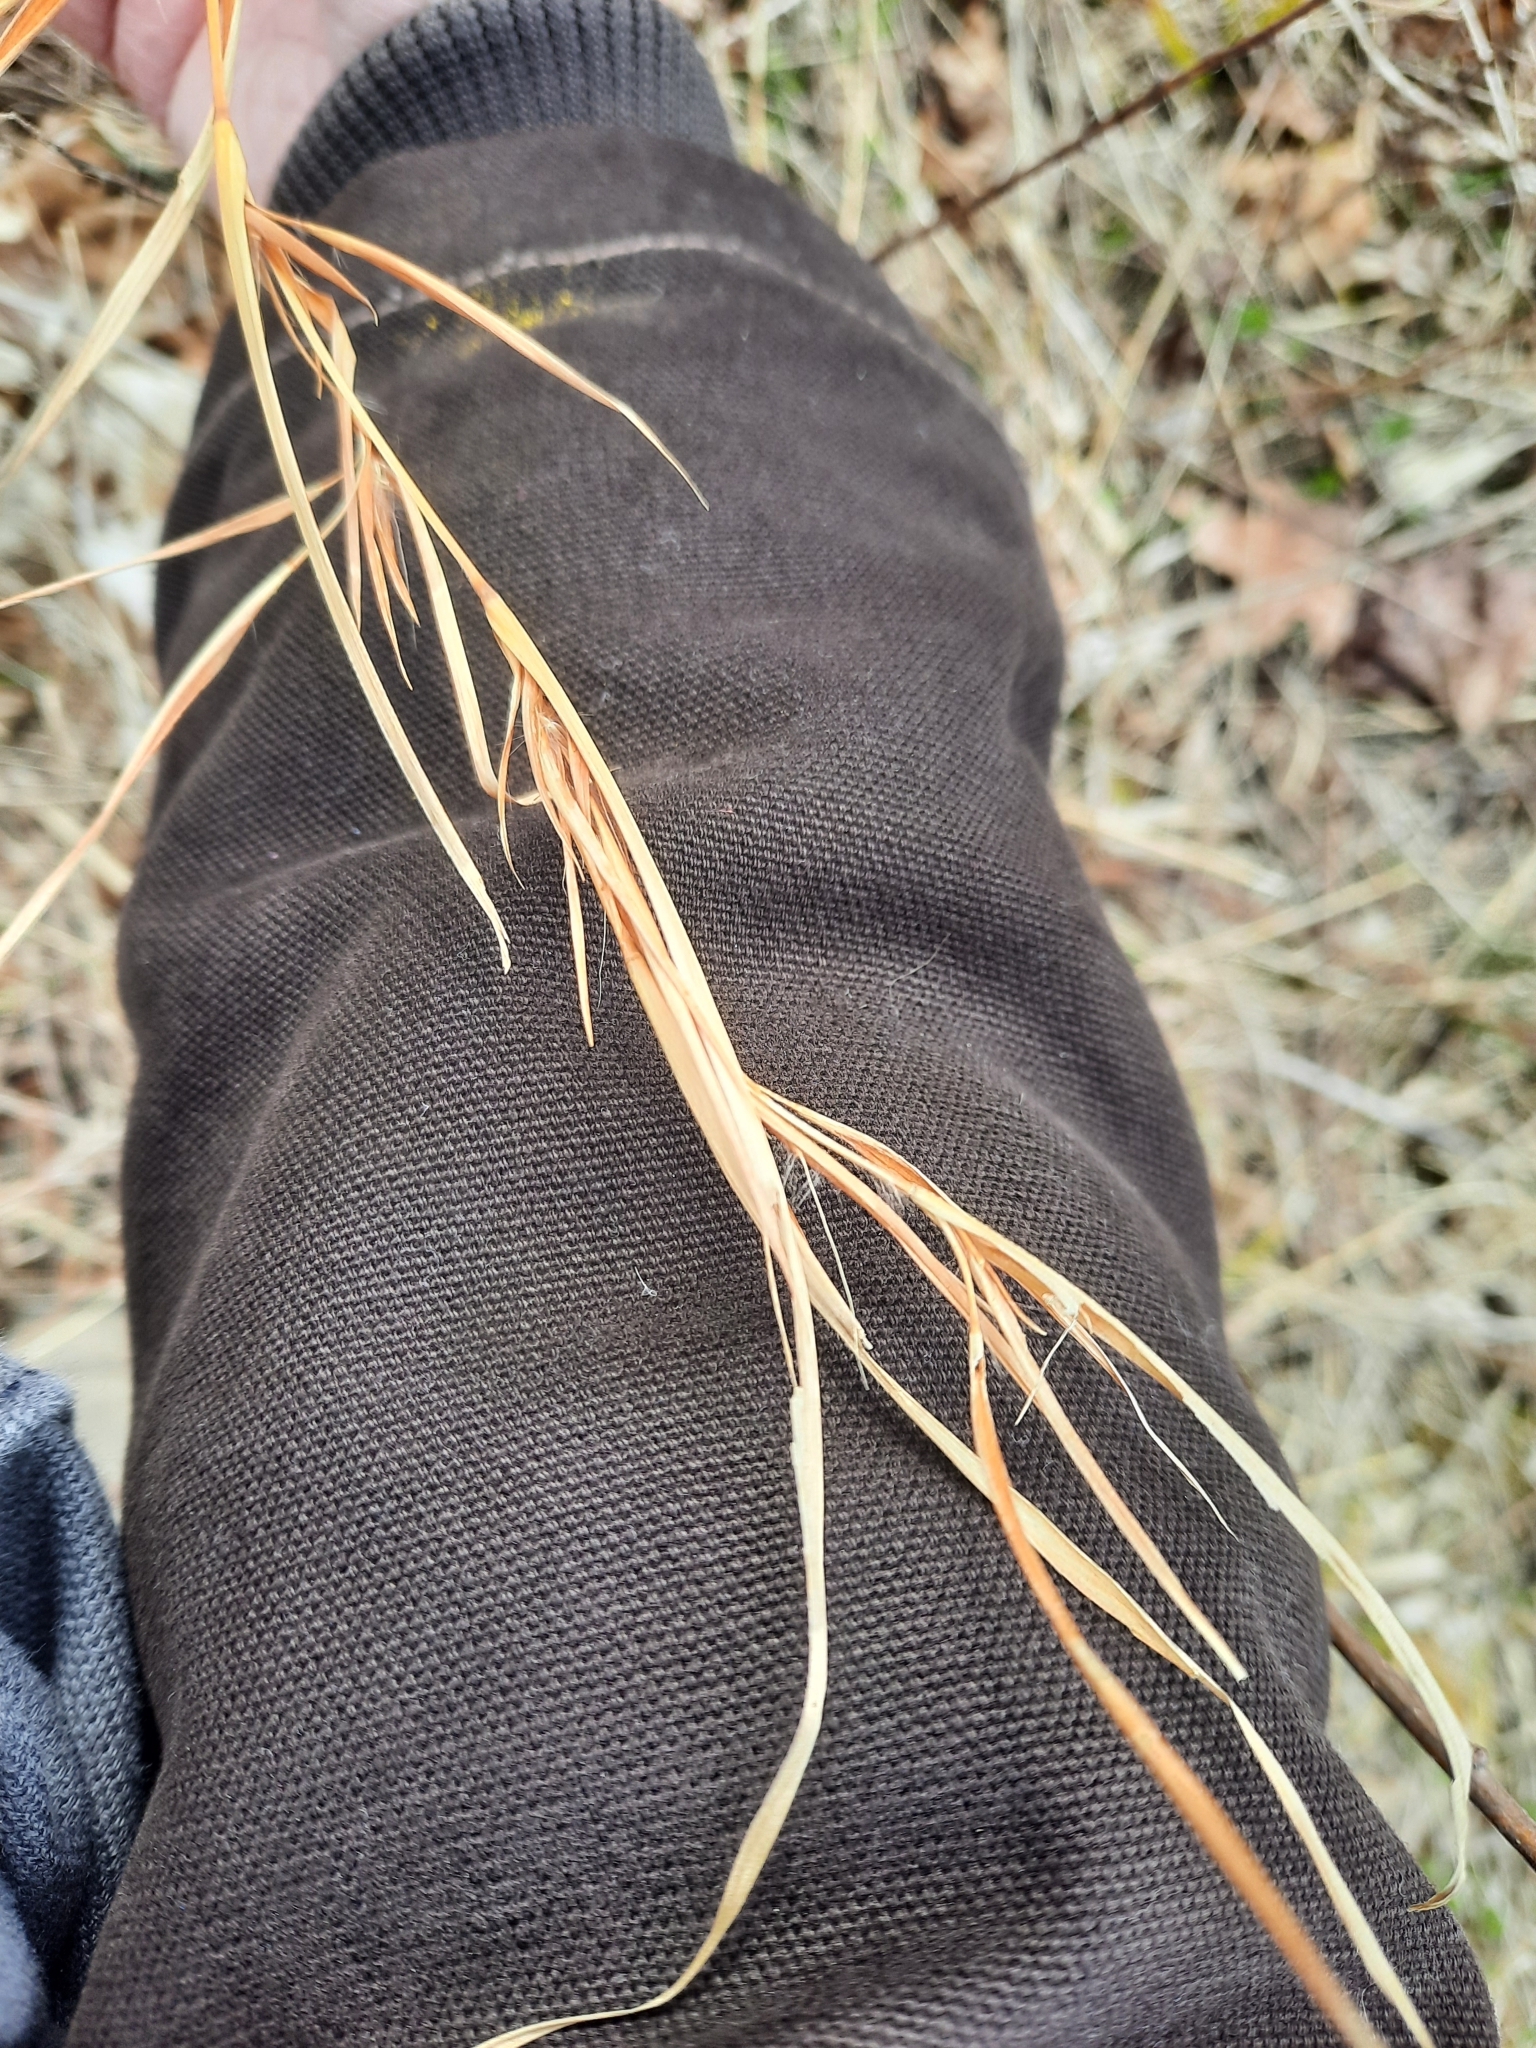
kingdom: Plantae
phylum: Tracheophyta
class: Liliopsida
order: Poales
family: Poaceae
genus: Andropogon
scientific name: Andropogon virginicus
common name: Broomsedge bluestem
